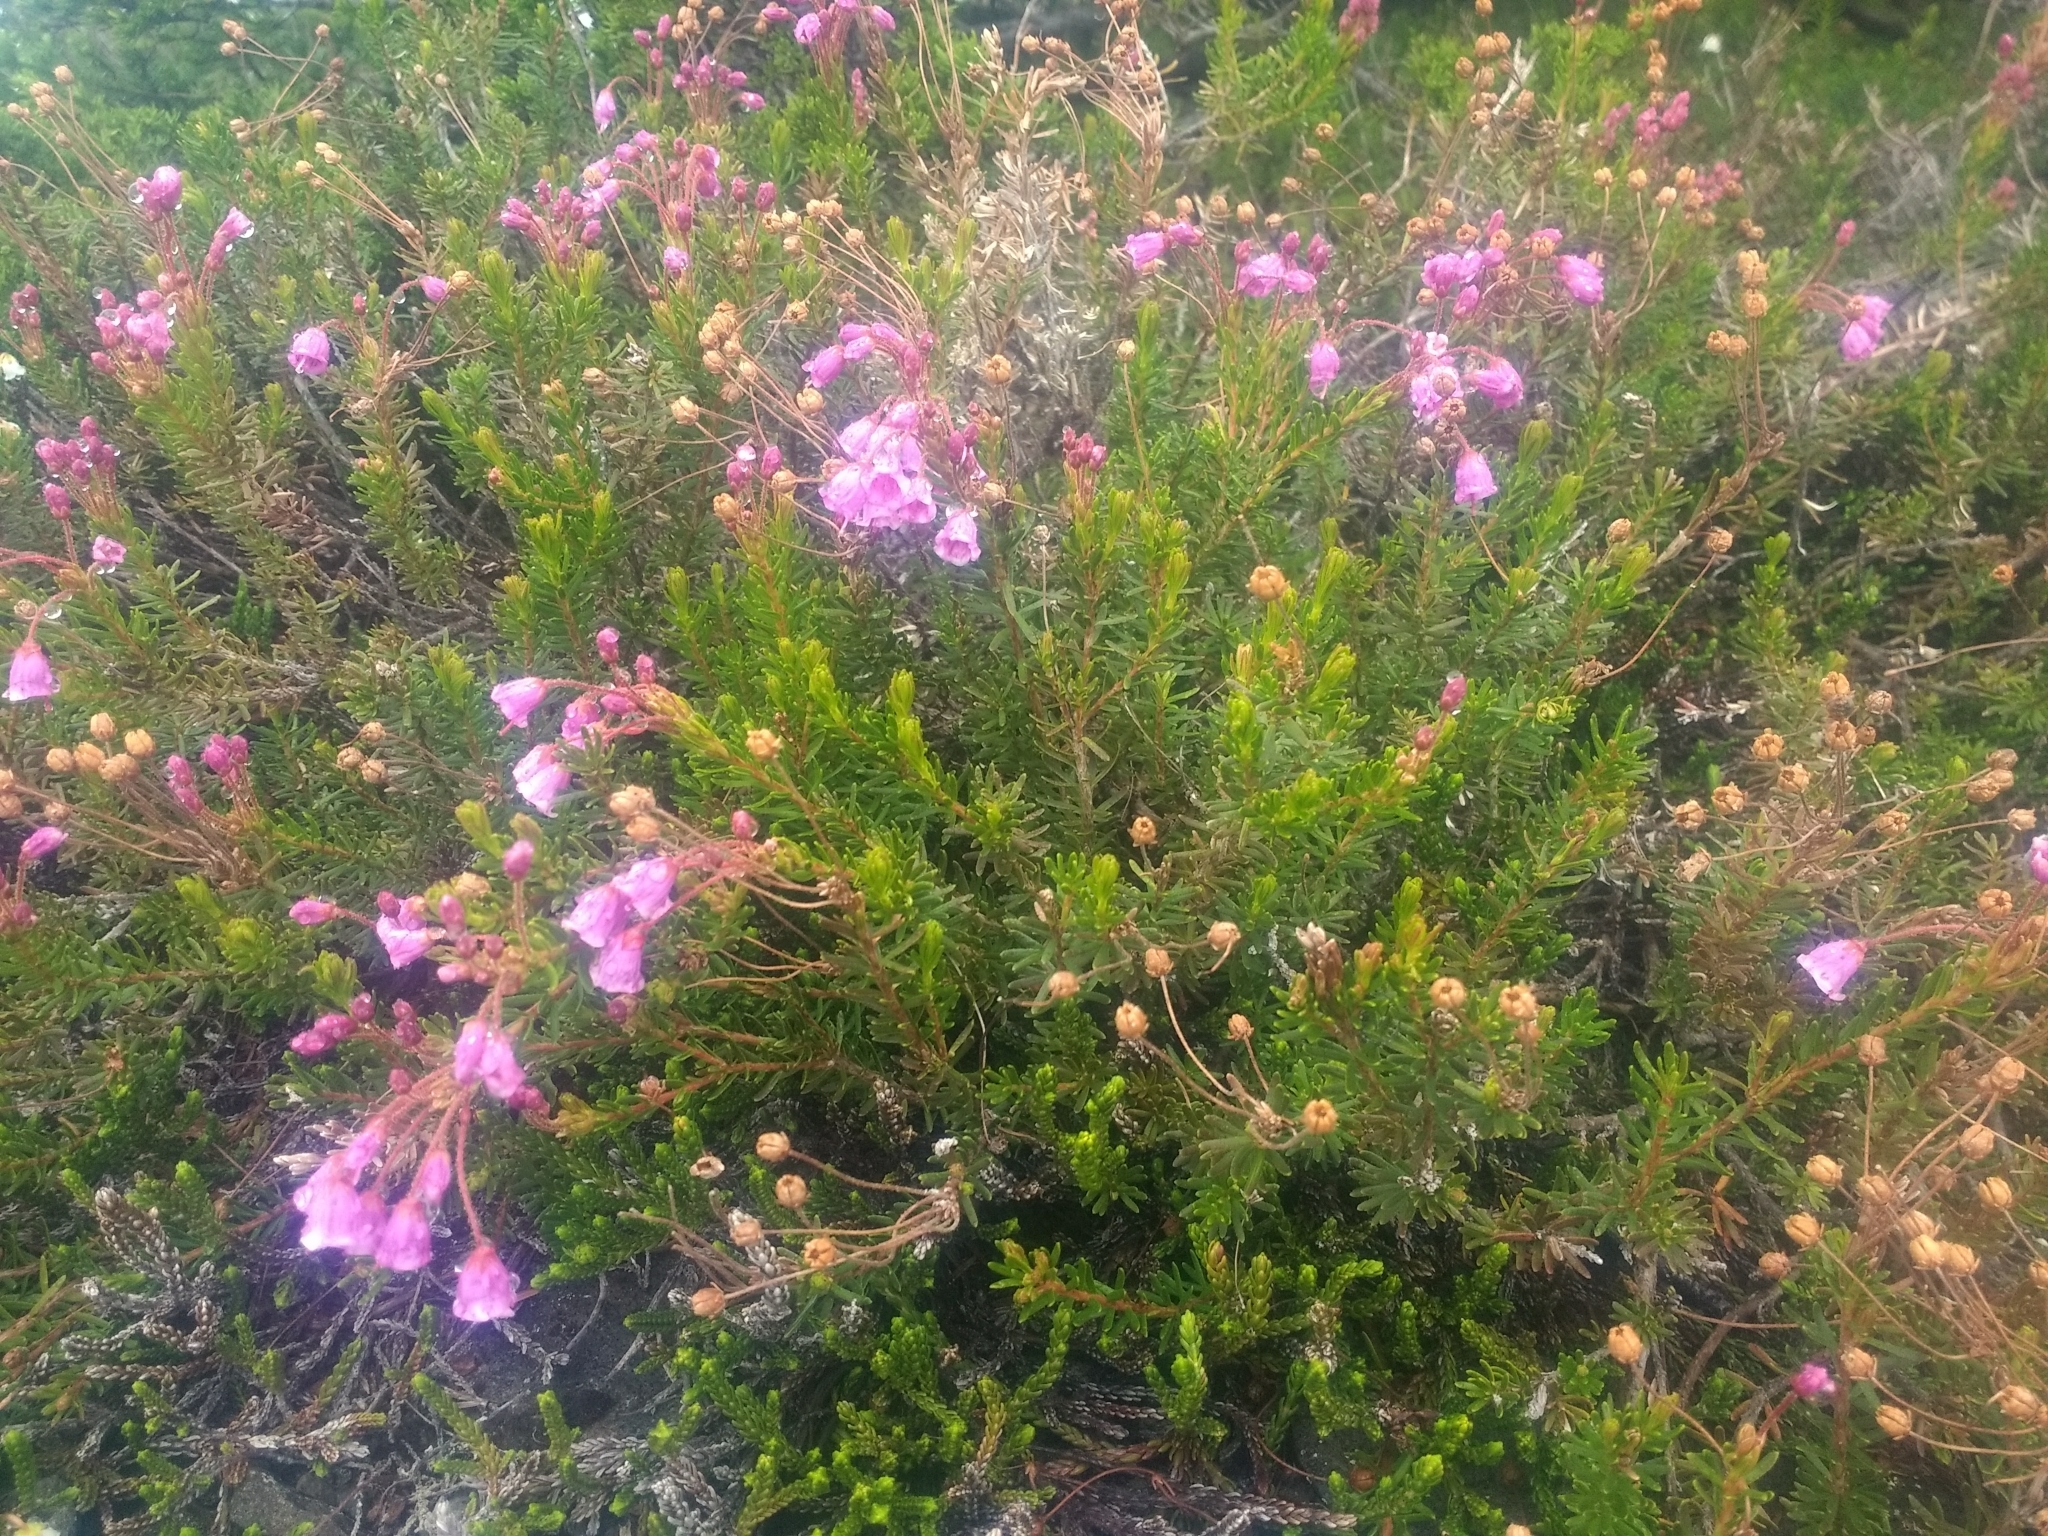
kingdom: Plantae
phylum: Tracheophyta
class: Magnoliopsida
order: Ericales
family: Ericaceae
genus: Phyllodoce
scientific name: Phyllodoce empetriformis
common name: Pink mountain heather
